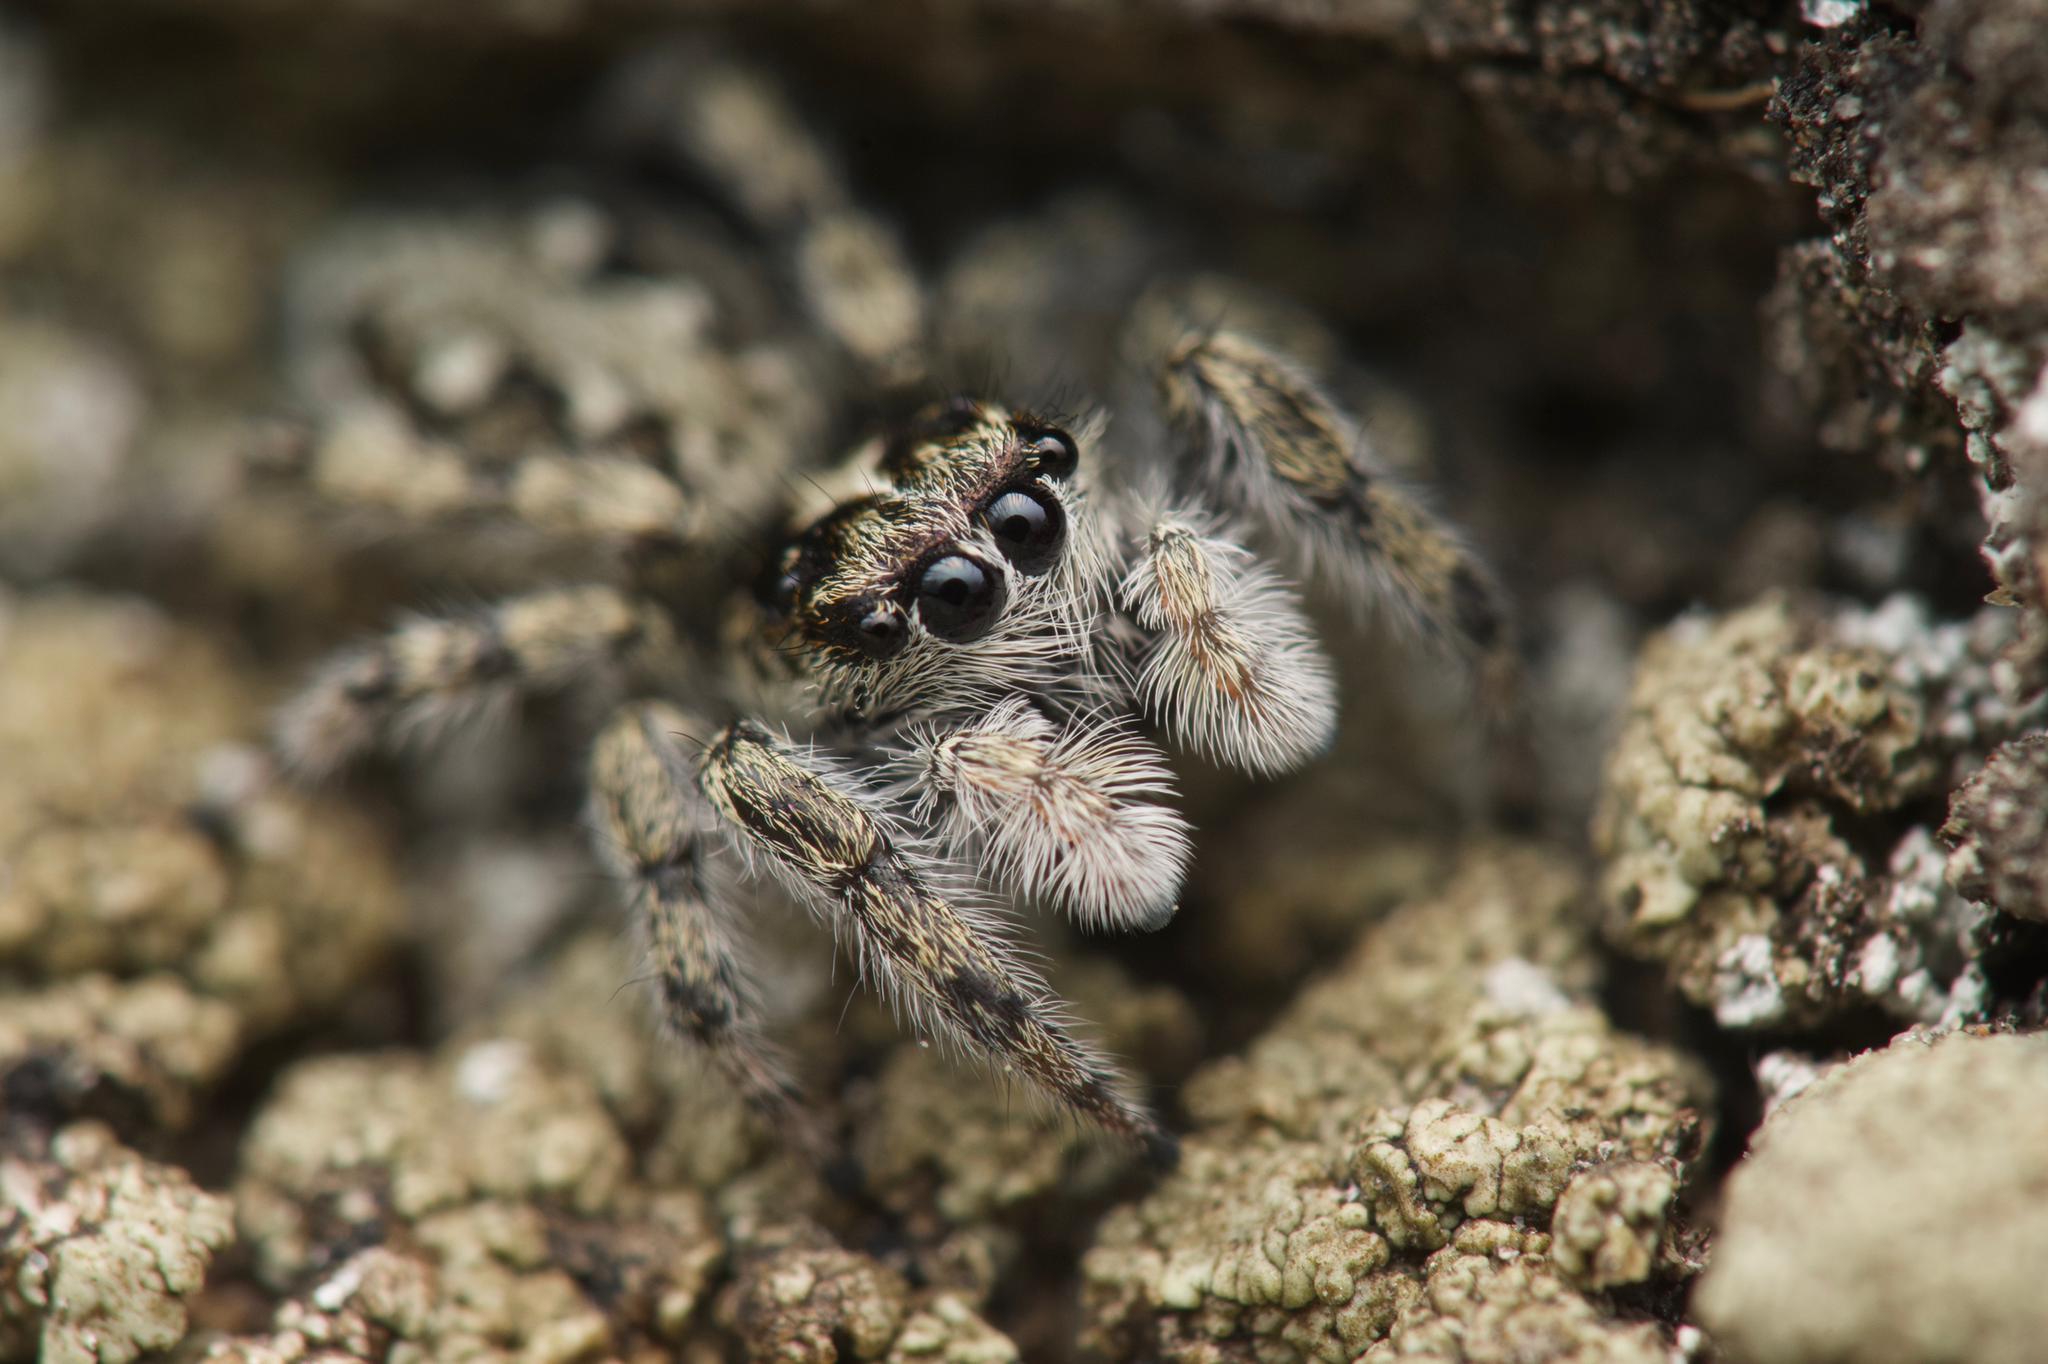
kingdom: Animalia
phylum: Arthropoda
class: Arachnida
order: Araneae
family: Salticidae
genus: Attulus
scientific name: Attulus longipes
